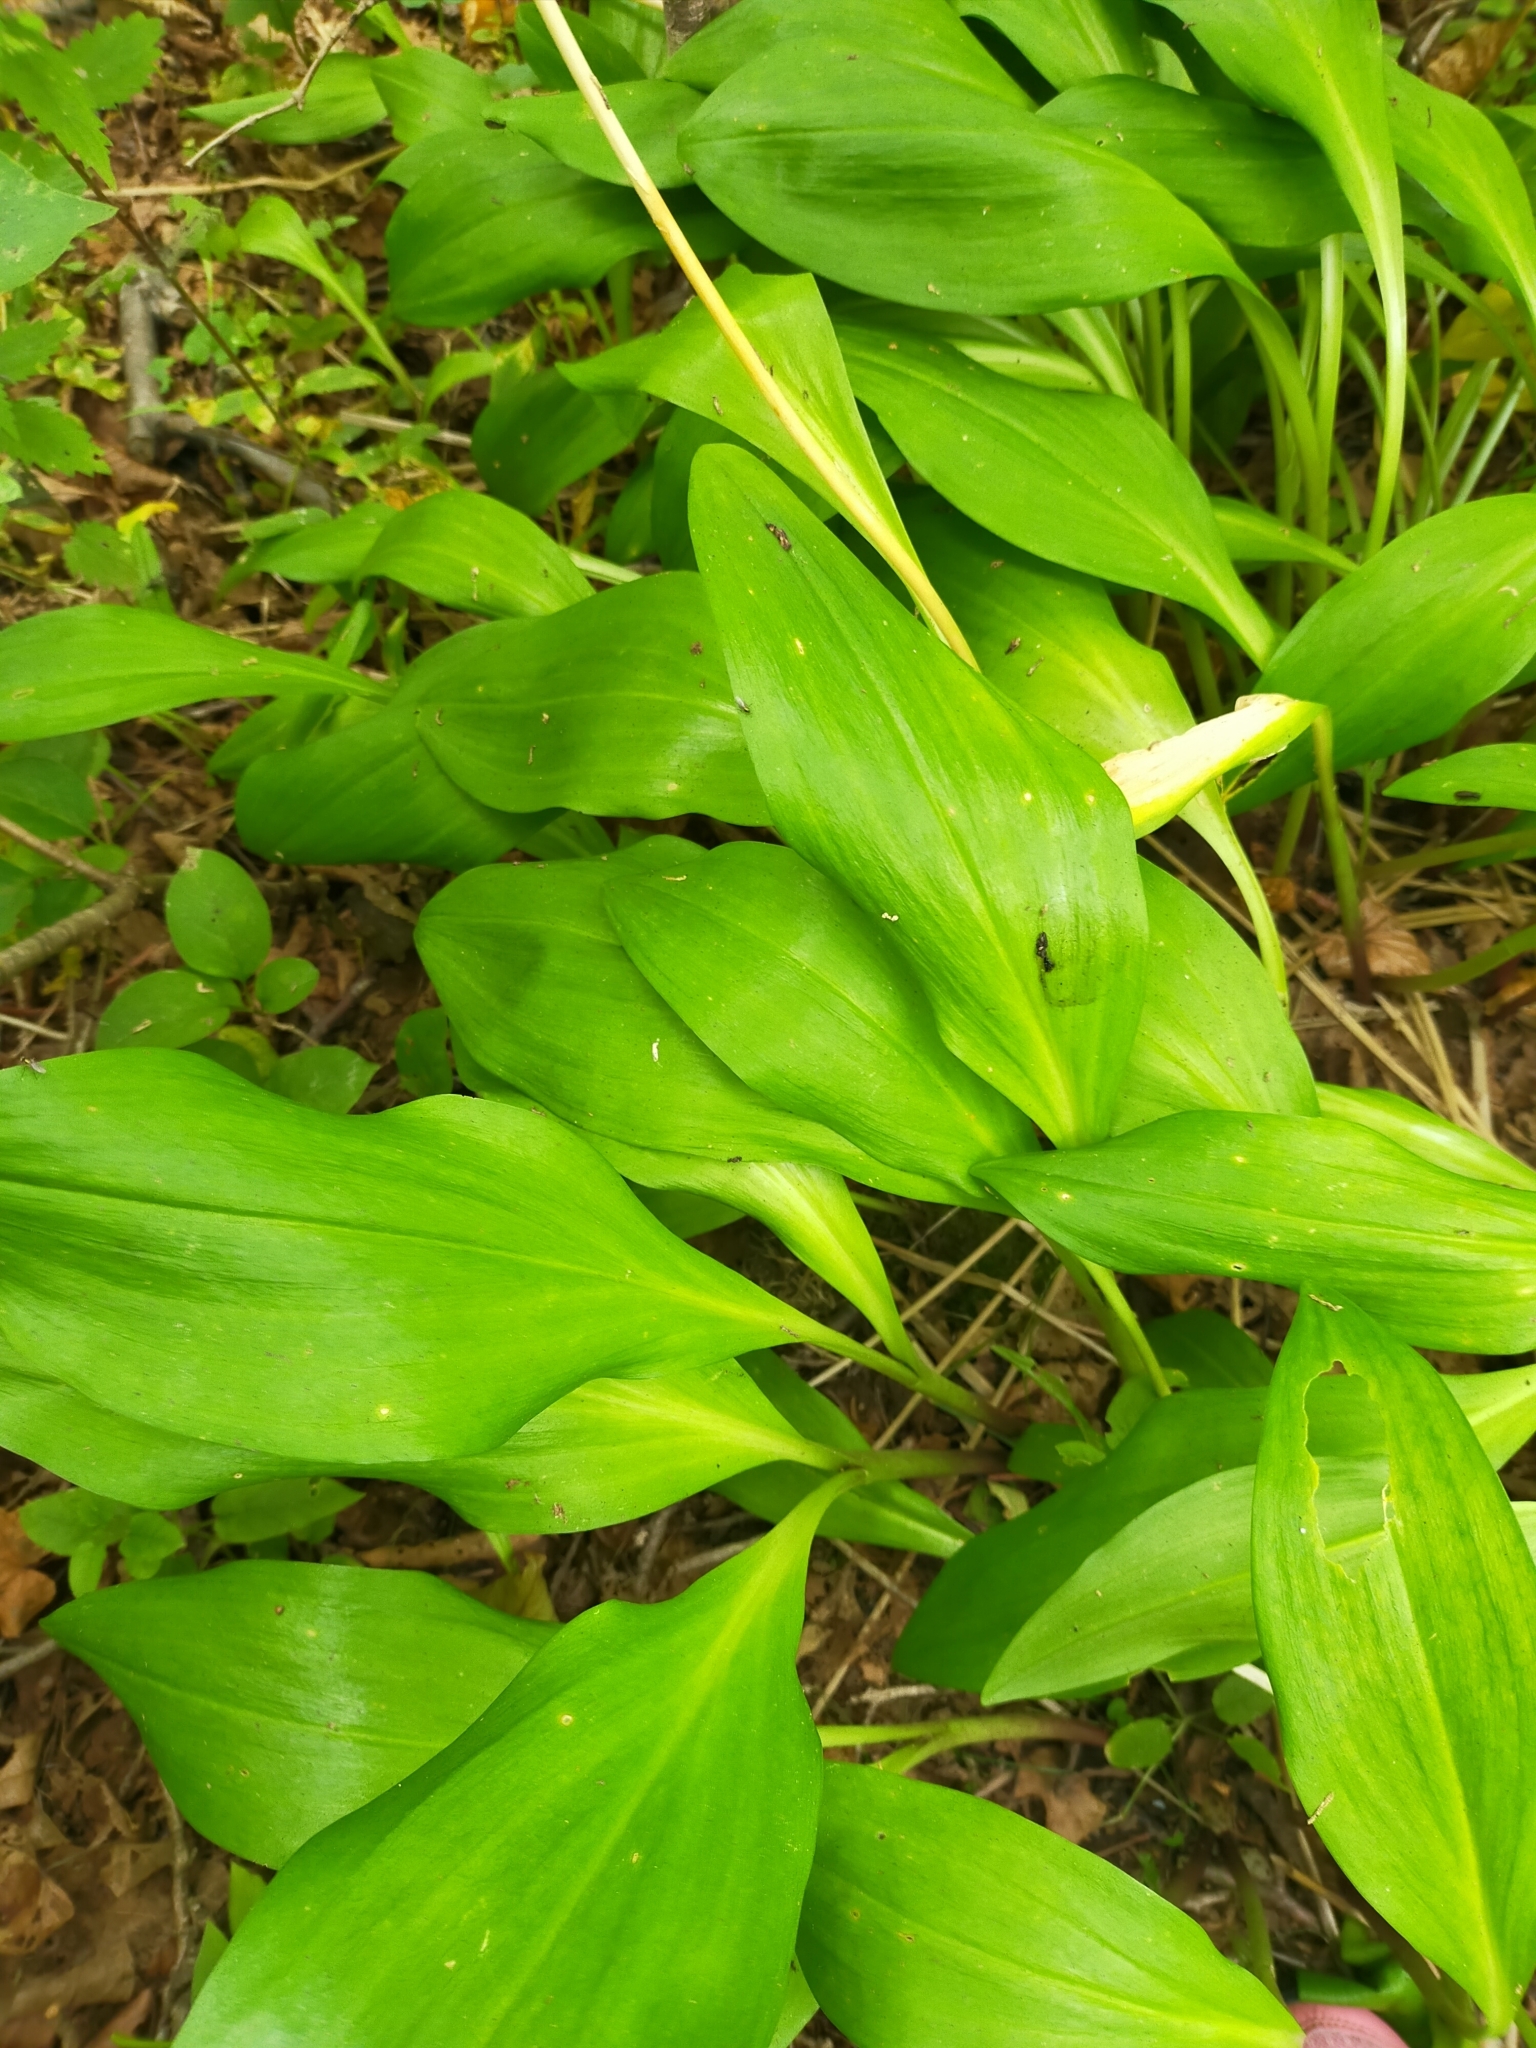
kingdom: Plantae
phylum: Tracheophyta
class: Liliopsida
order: Asparagales
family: Amaryllidaceae
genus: Allium
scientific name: Allium ochotense
